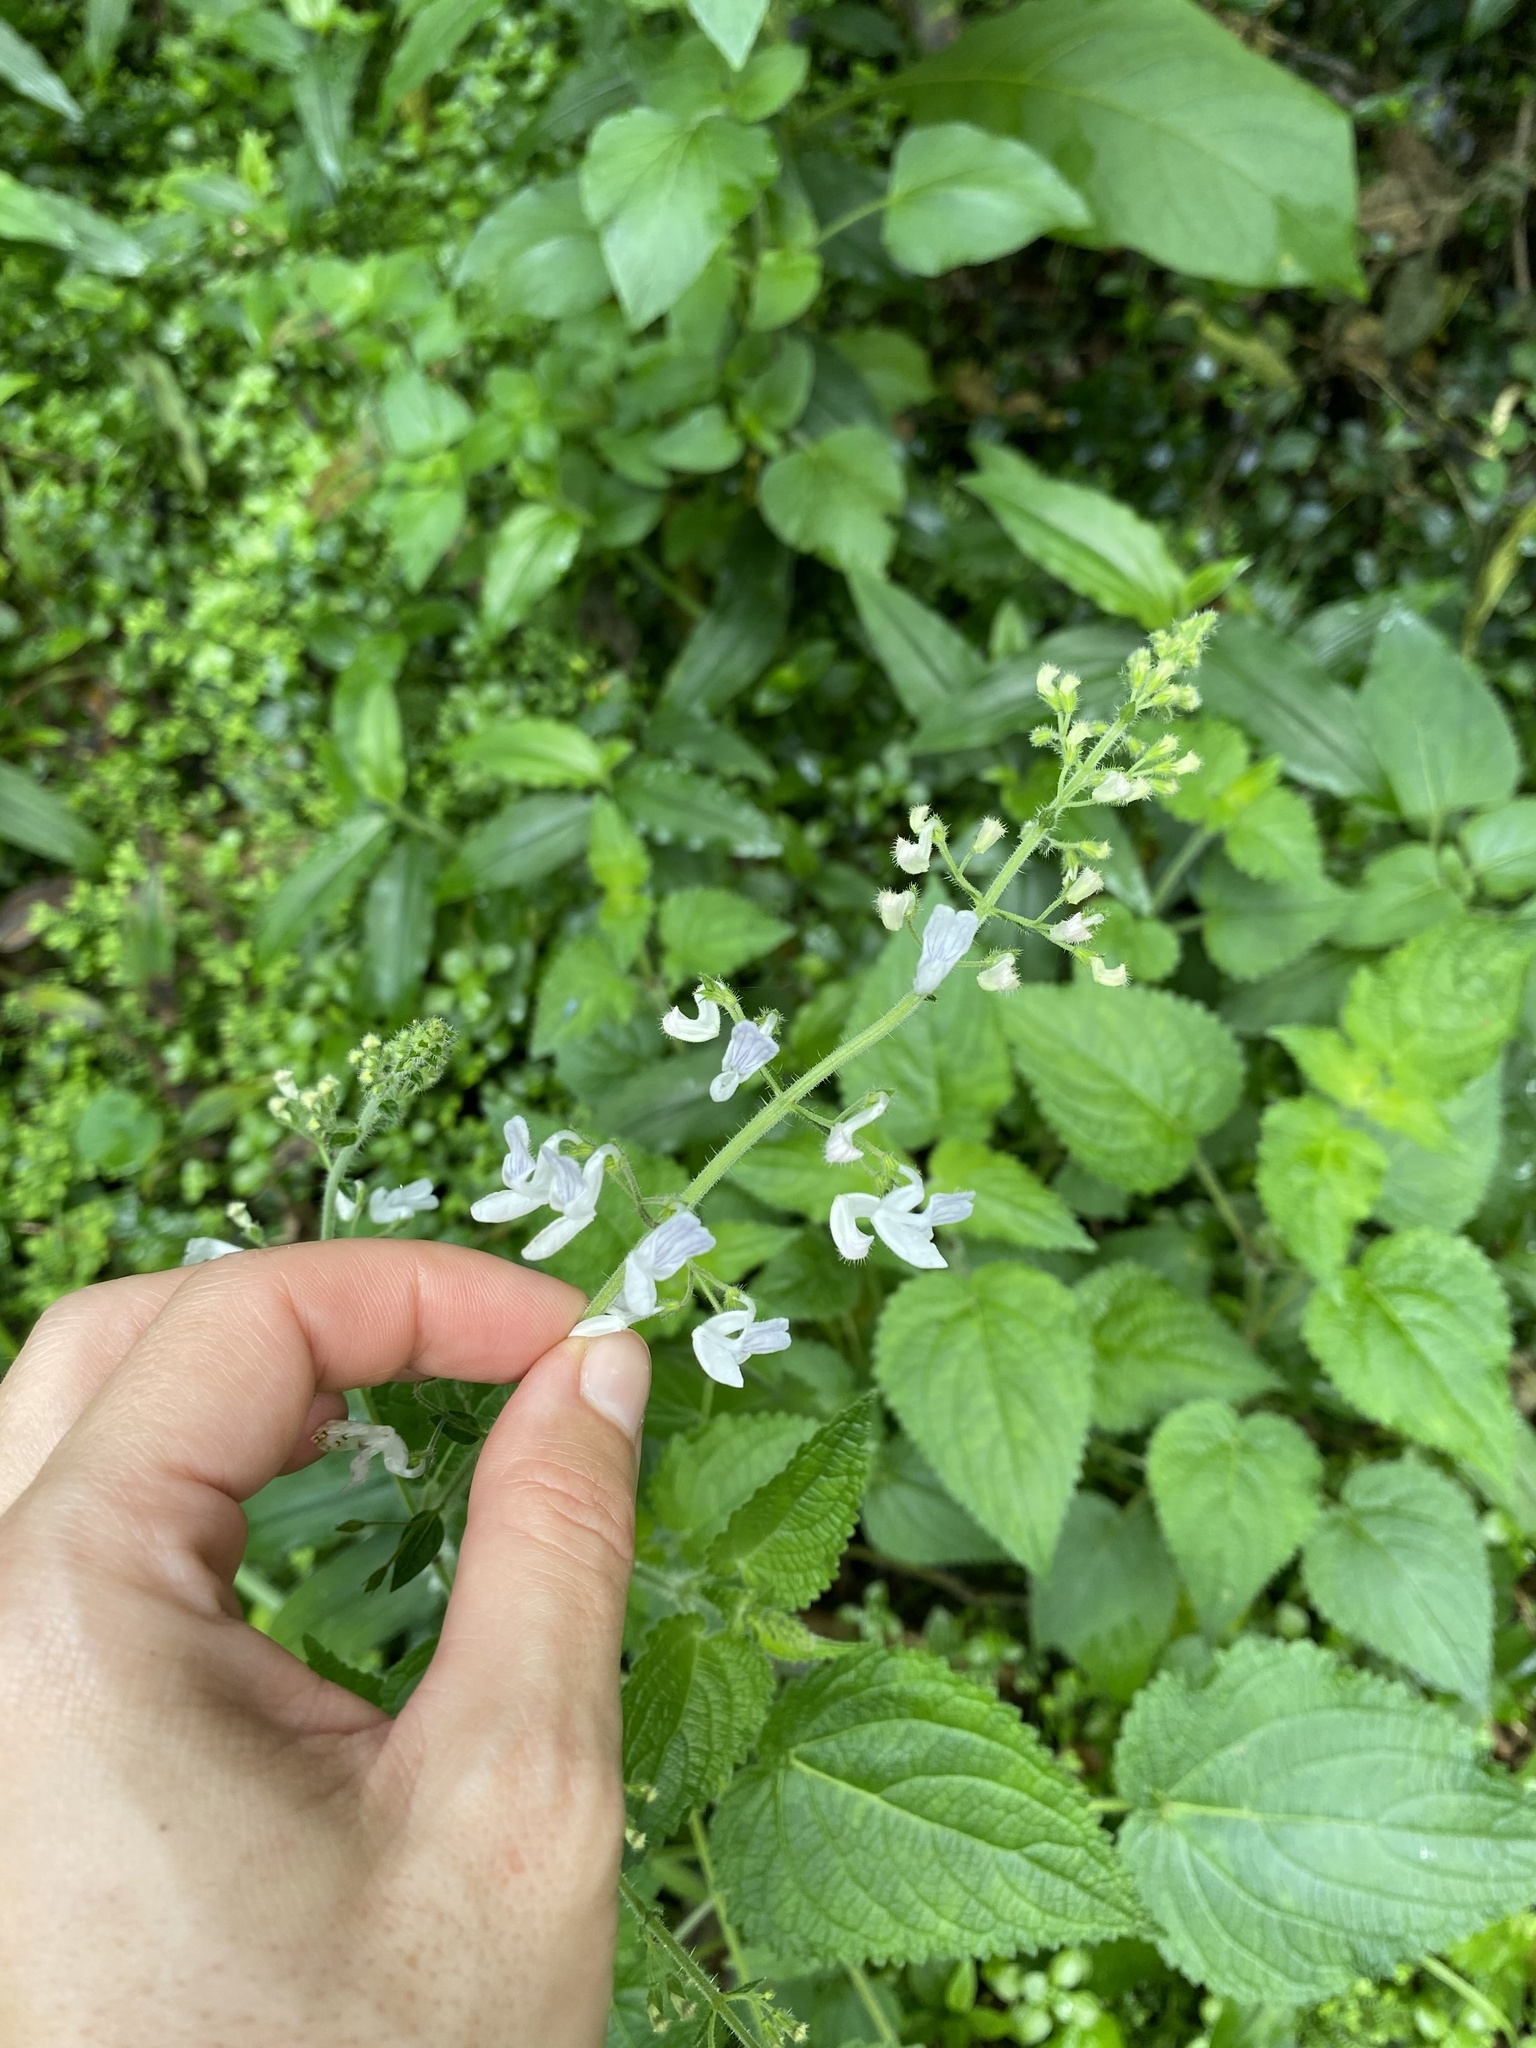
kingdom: Plantae
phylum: Tracheophyta
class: Magnoliopsida
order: Lamiales
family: Lamiaceae
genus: Equilabium
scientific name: Equilabium laxiflorum
